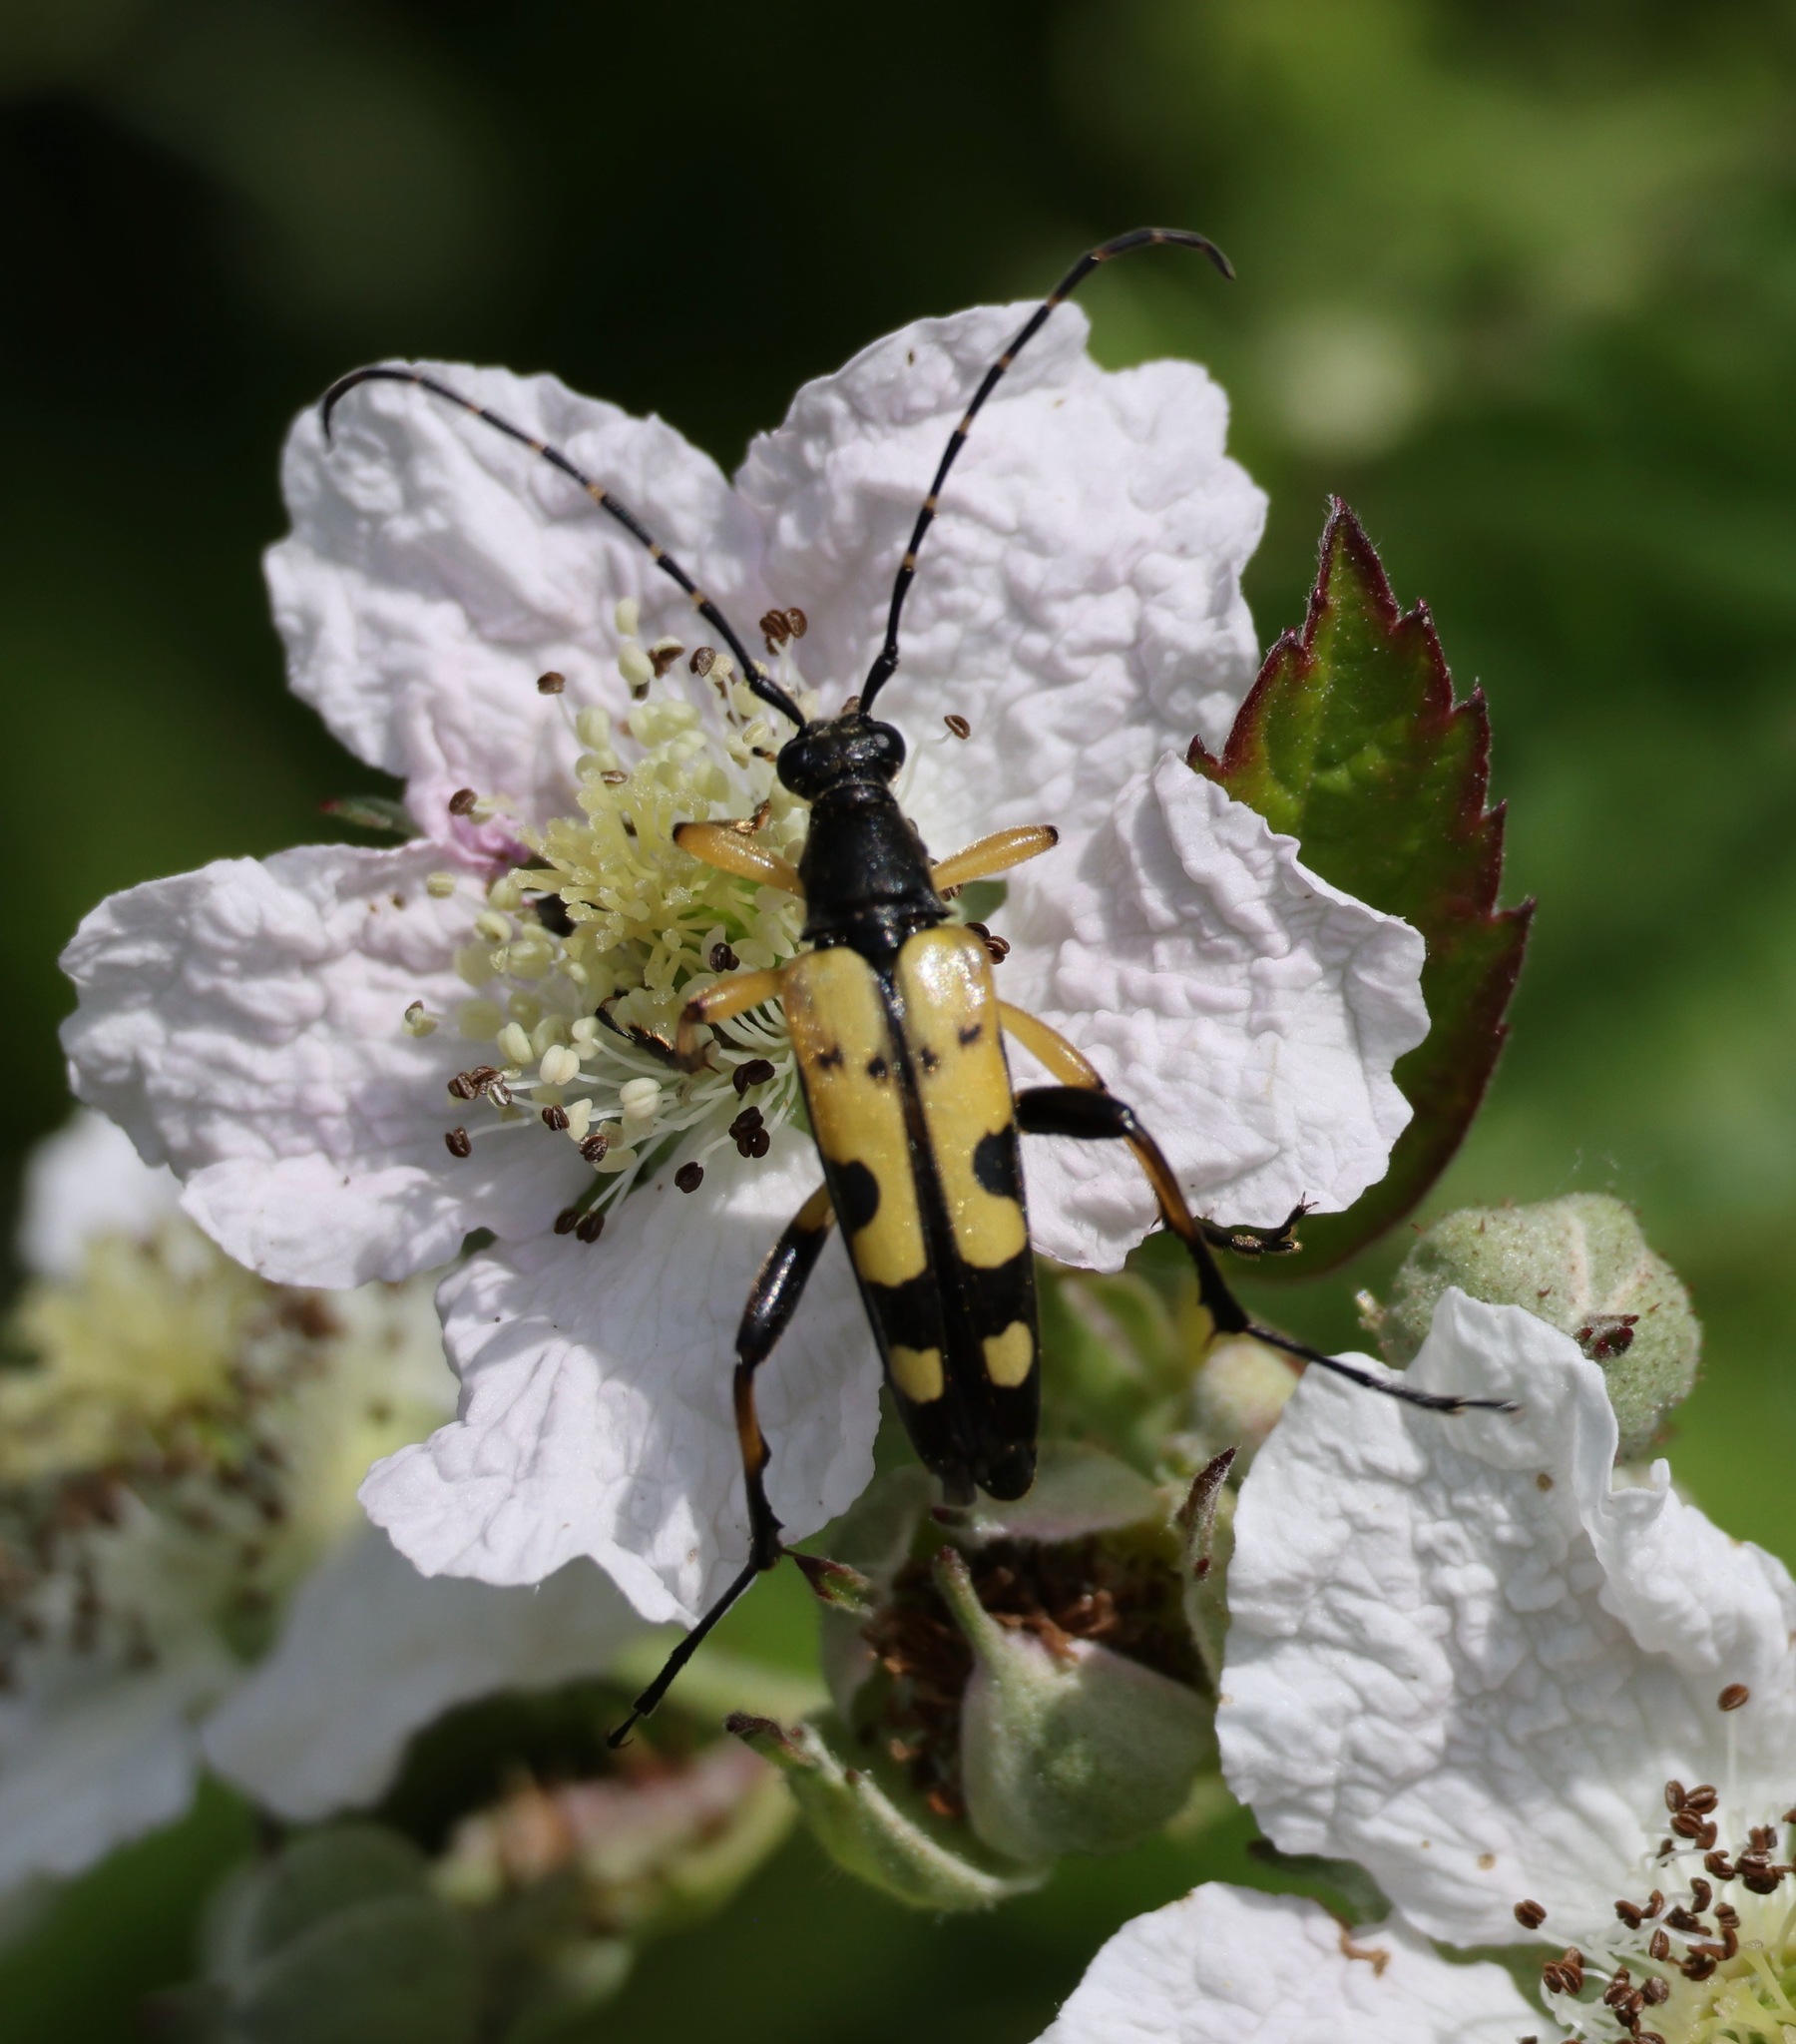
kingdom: Animalia
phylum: Arthropoda
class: Insecta
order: Coleoptera
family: Cerambycidae
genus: Rutpela
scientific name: Rutpela maculata
